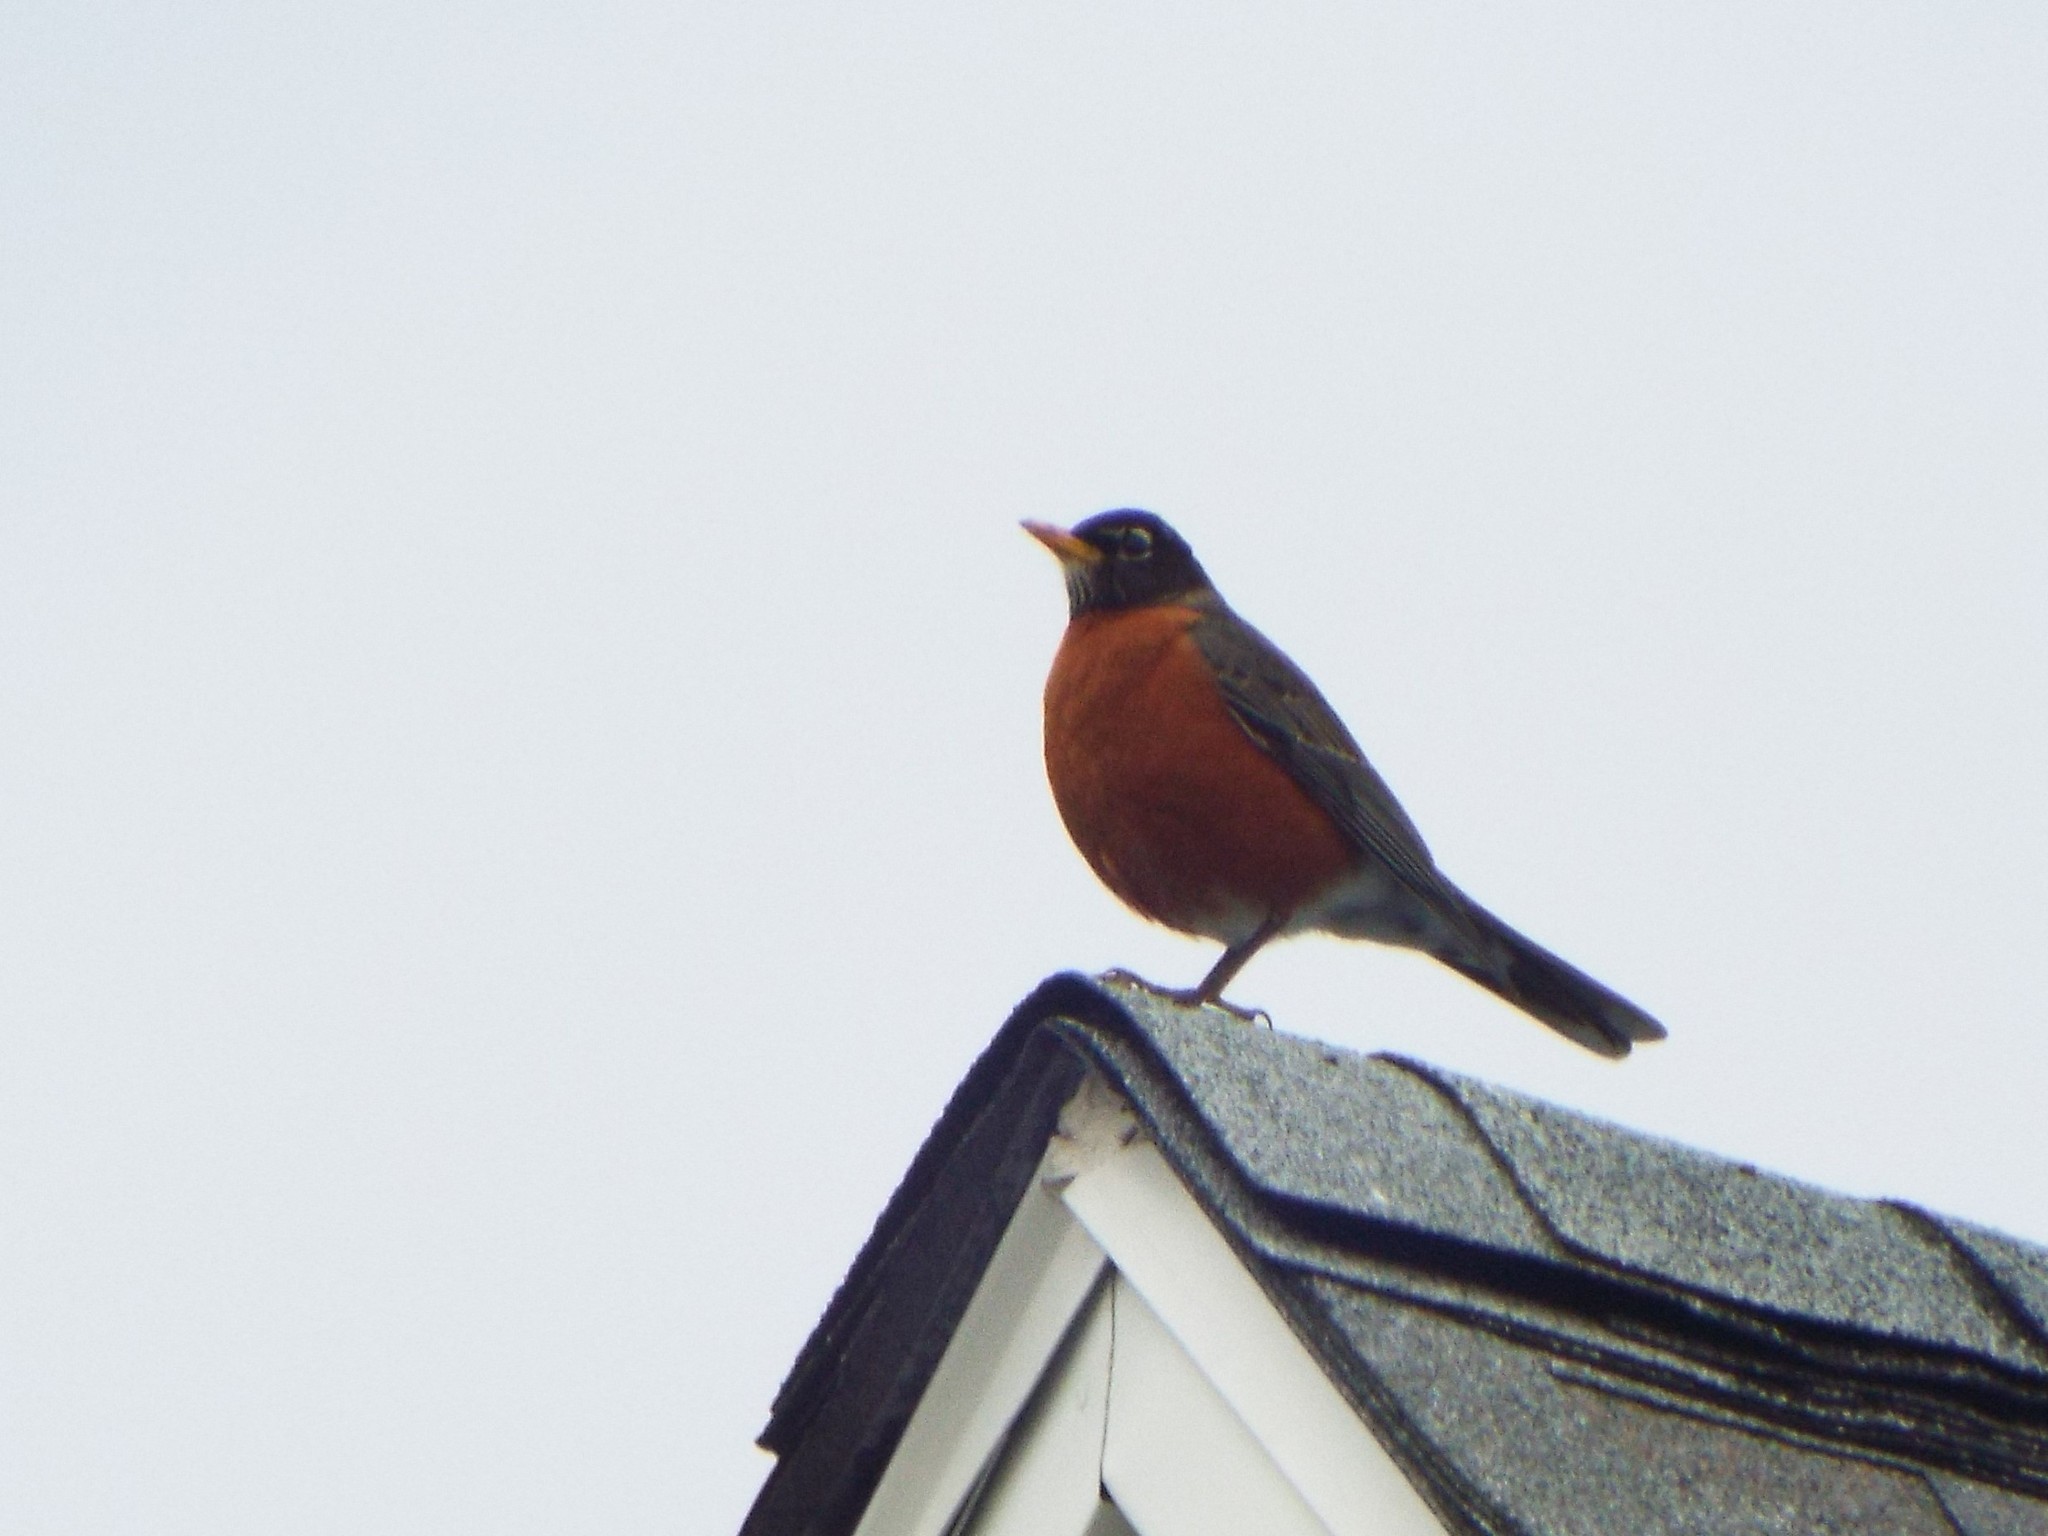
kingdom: Animalia
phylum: Chordata
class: Aves
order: Passeriformes
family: Turdidae
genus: Turdus
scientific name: Turdus migratorius
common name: American robin
